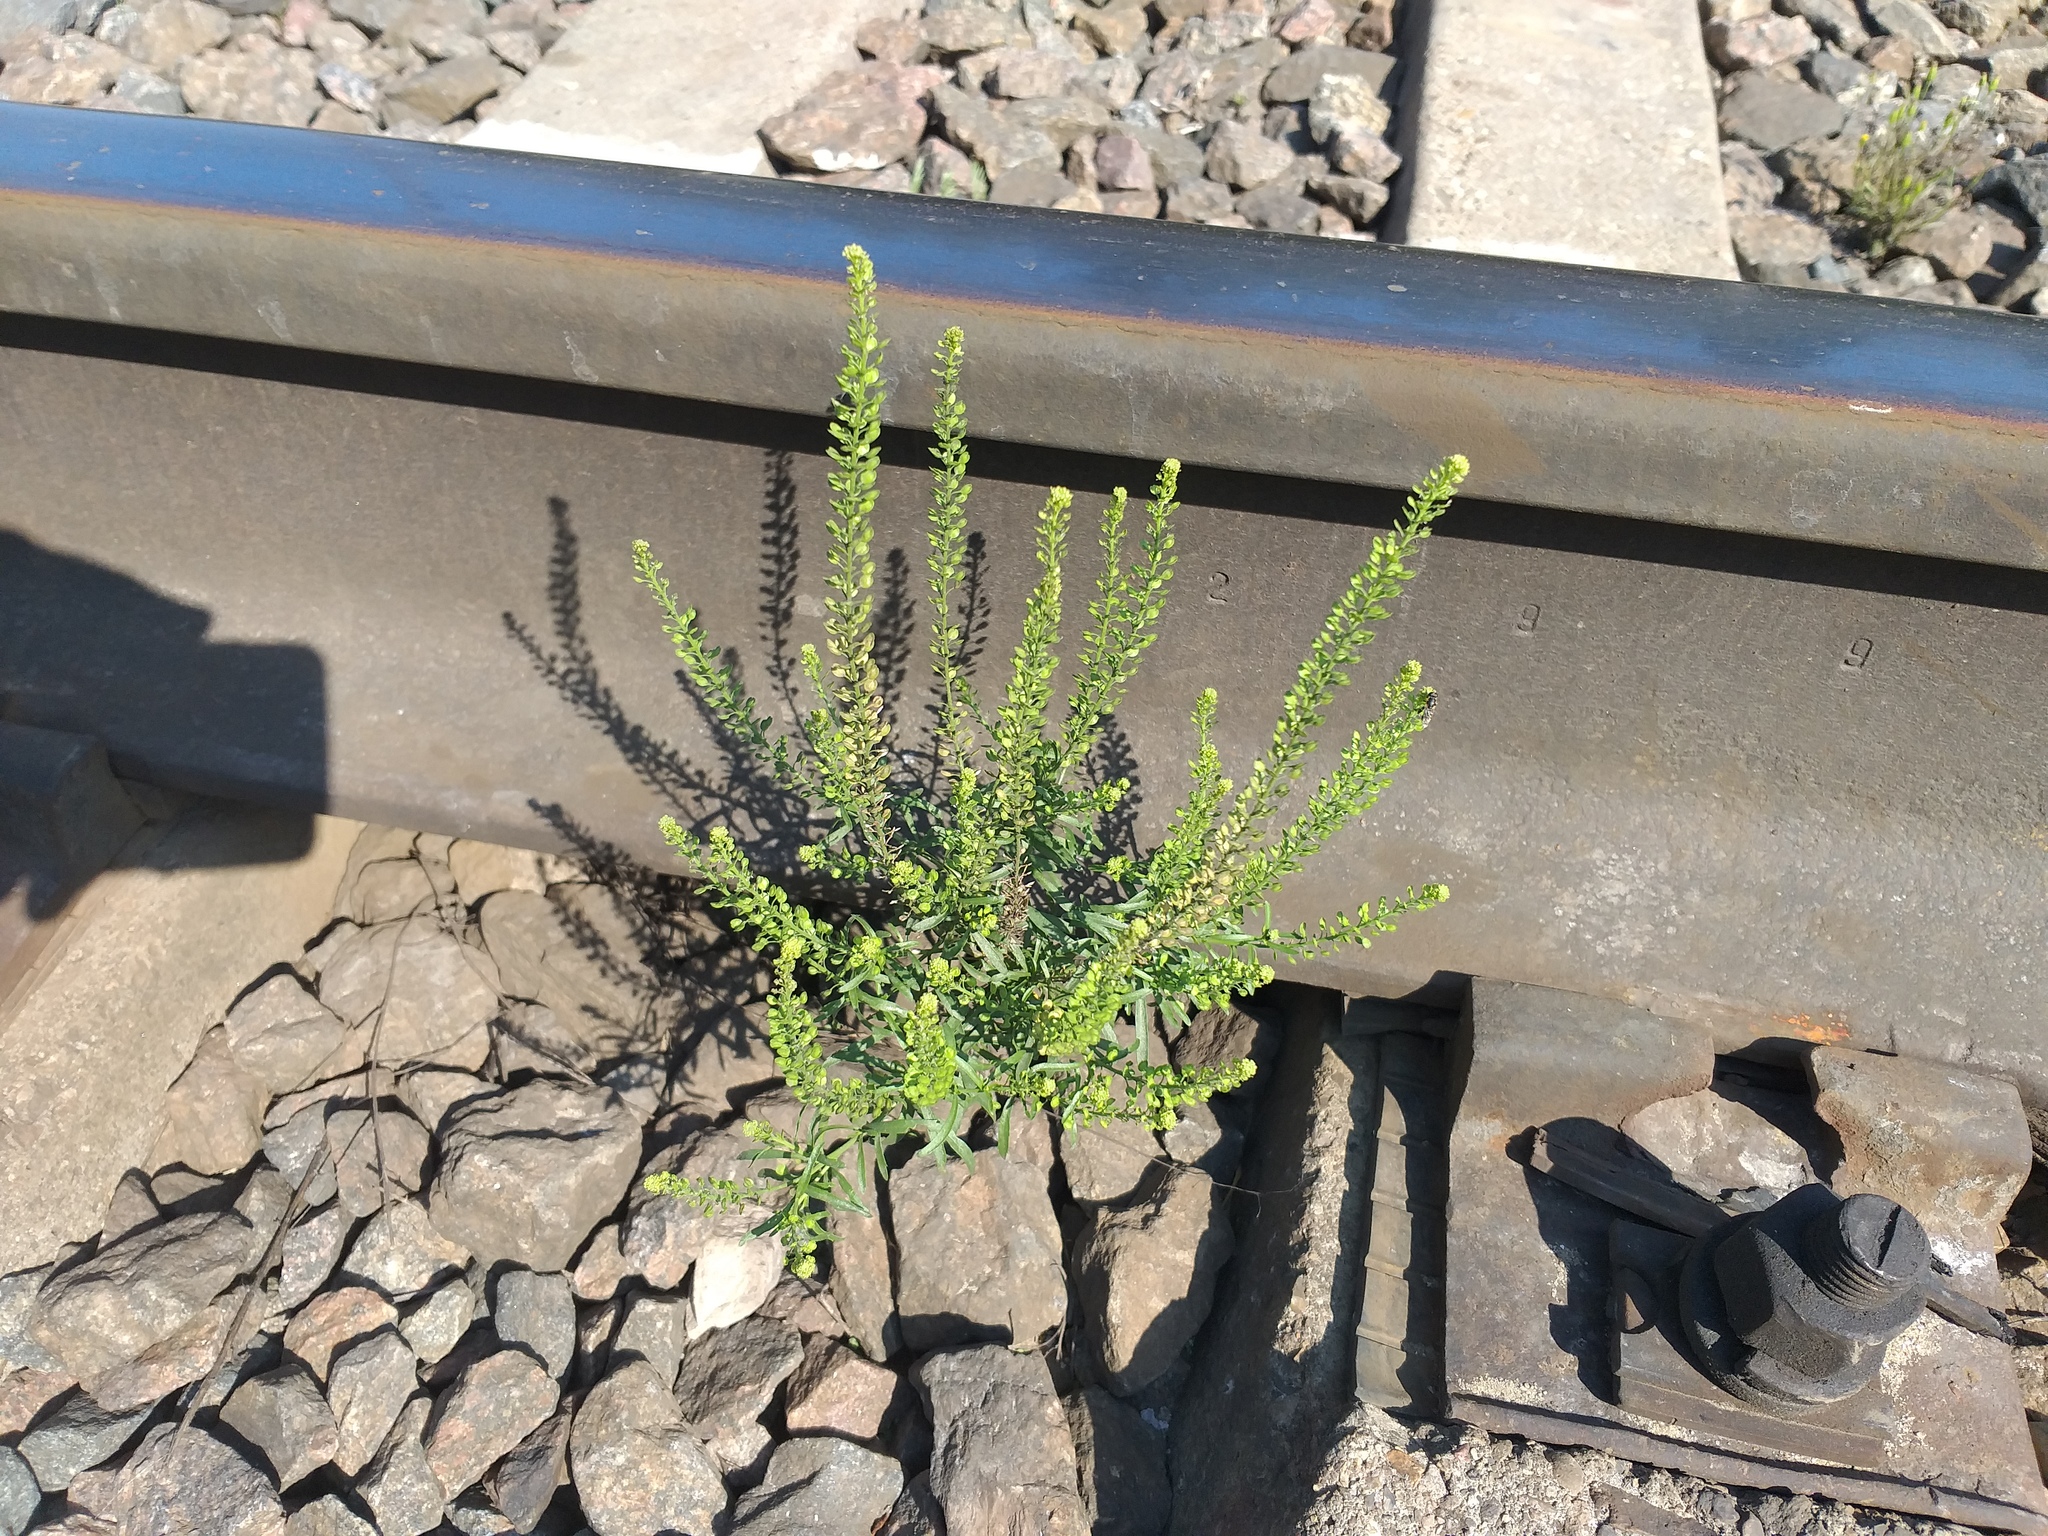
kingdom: Plantae
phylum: Tracheophyta
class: Magnoliopsida
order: Brassicales
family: Brassicaceae
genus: Lepidium
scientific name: Lepidium densiflorum
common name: Miner's pepperwort
